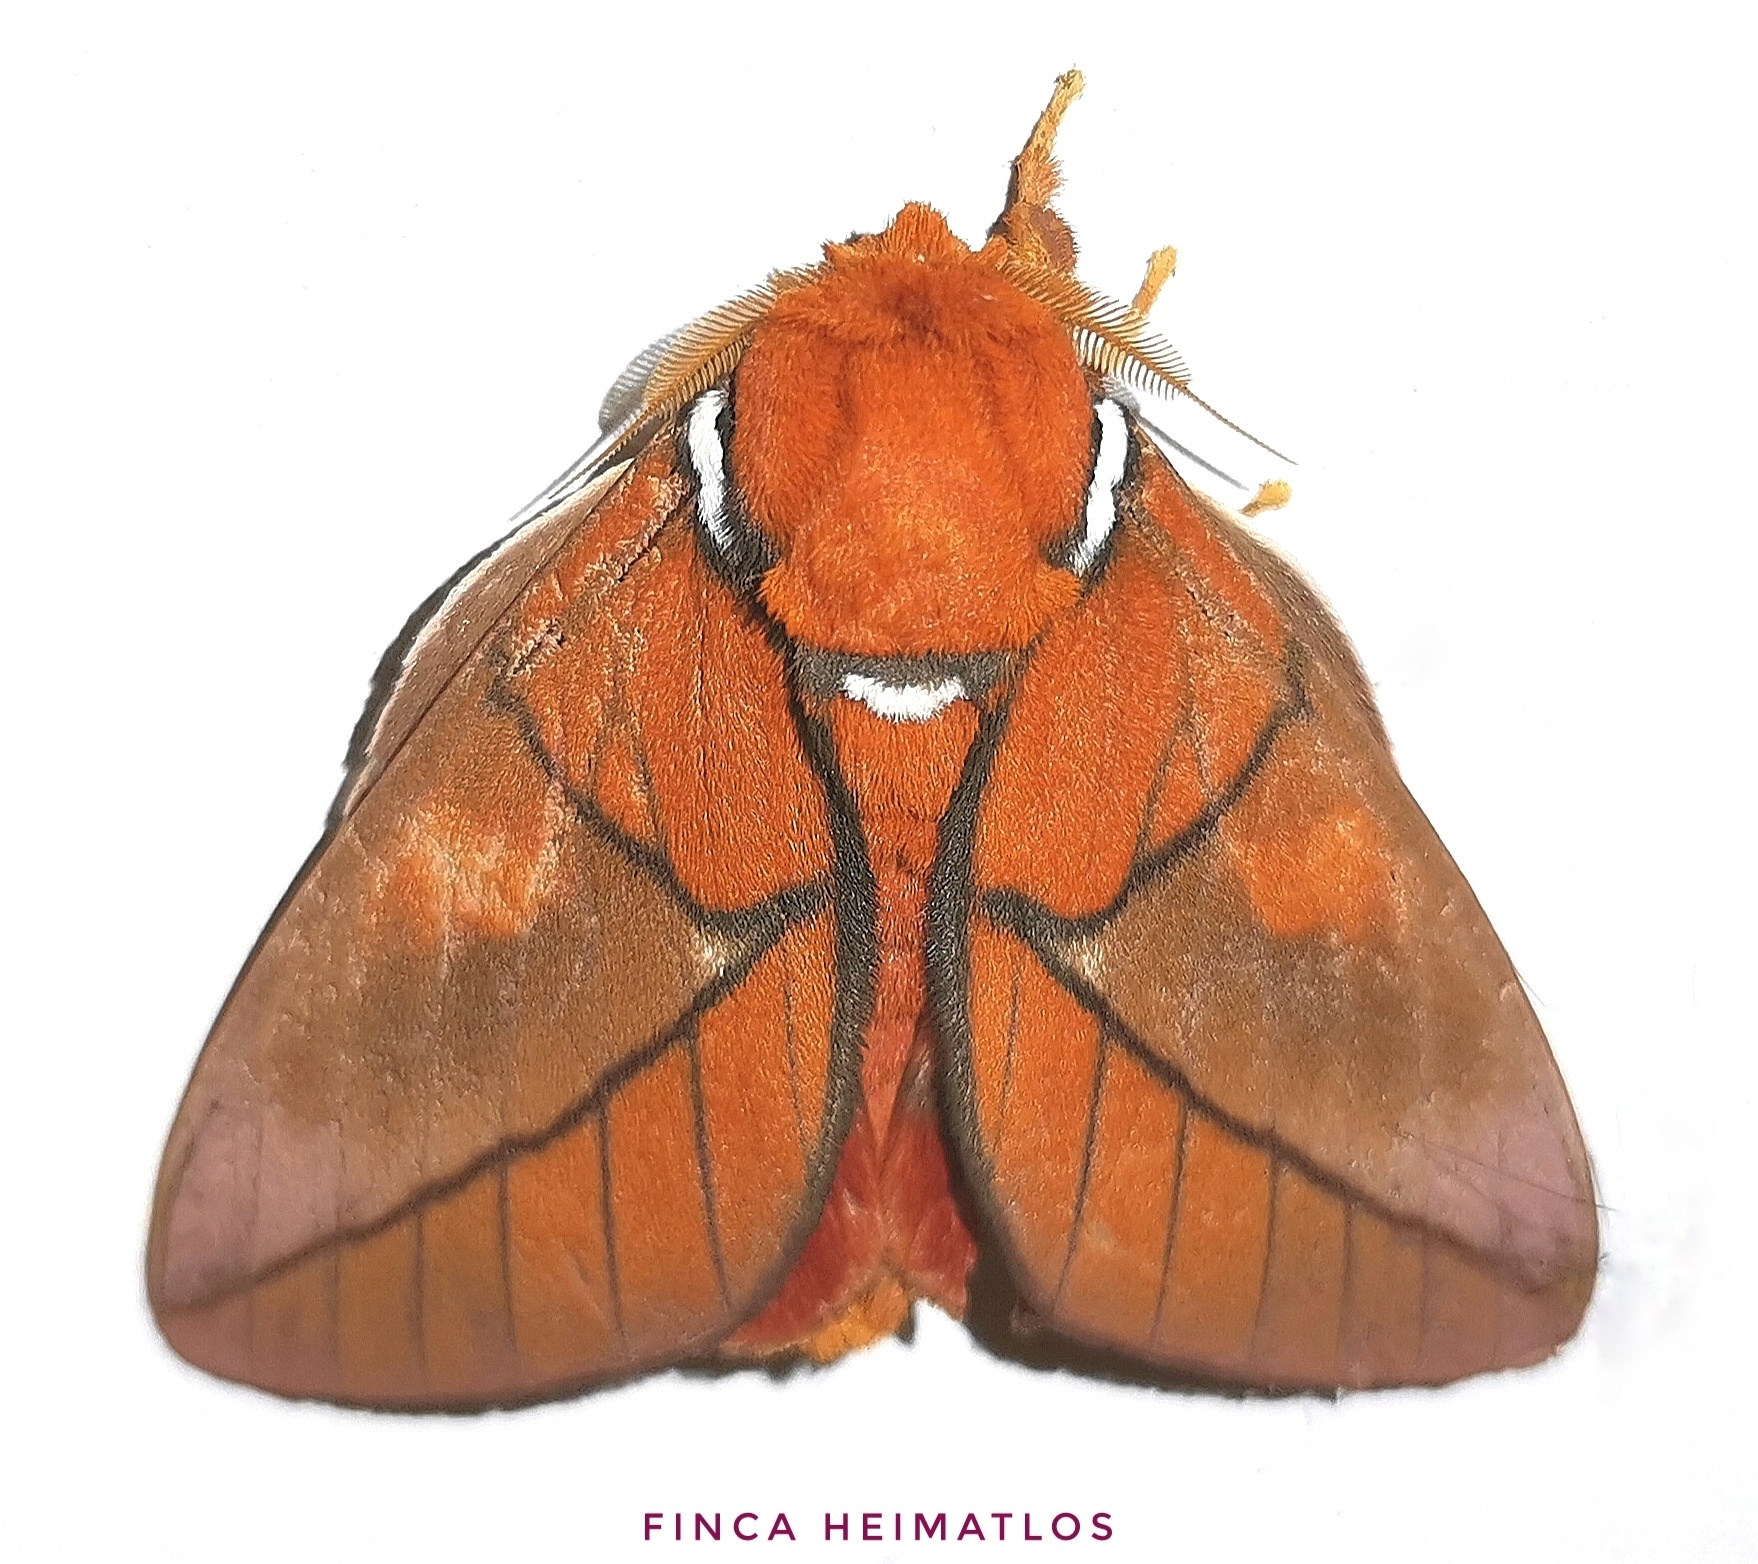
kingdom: Animalia
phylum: Arthropoda
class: Insecta
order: Lepidoptera
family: Saturniidae
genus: Schausiella
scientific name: Schausiella polybia
